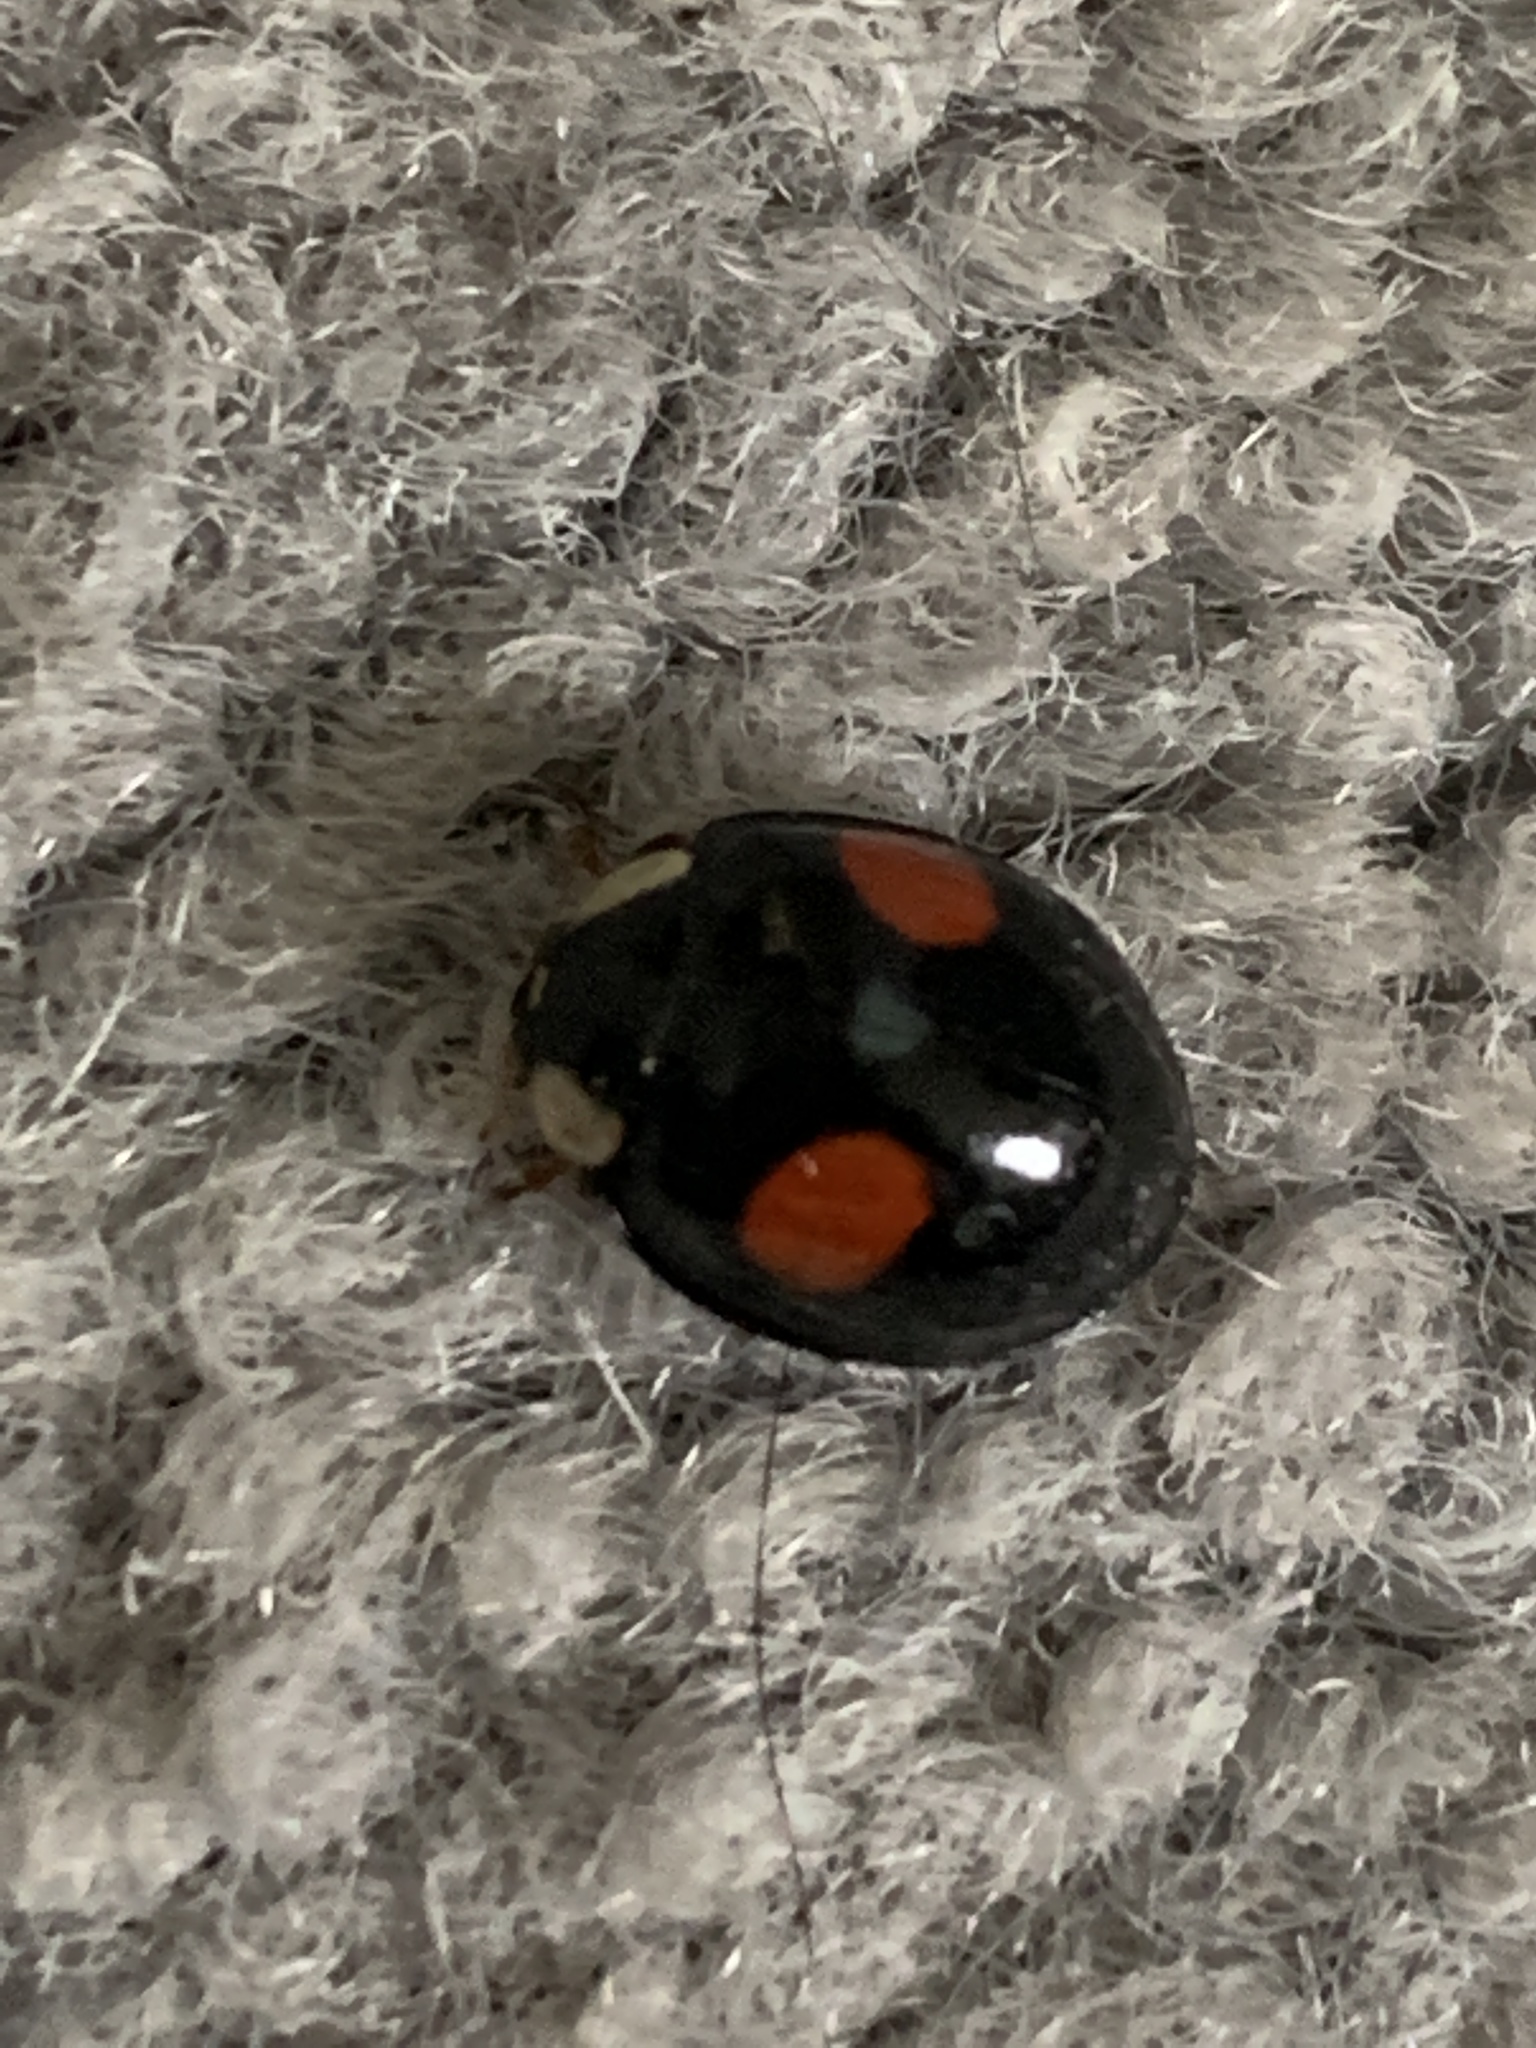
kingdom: Animalia
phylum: Arthropoda
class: Insecta
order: Coleoptera
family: Coccinellidae
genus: Harmonia
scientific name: Harmonia axyridis
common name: Harlequin ladybird
